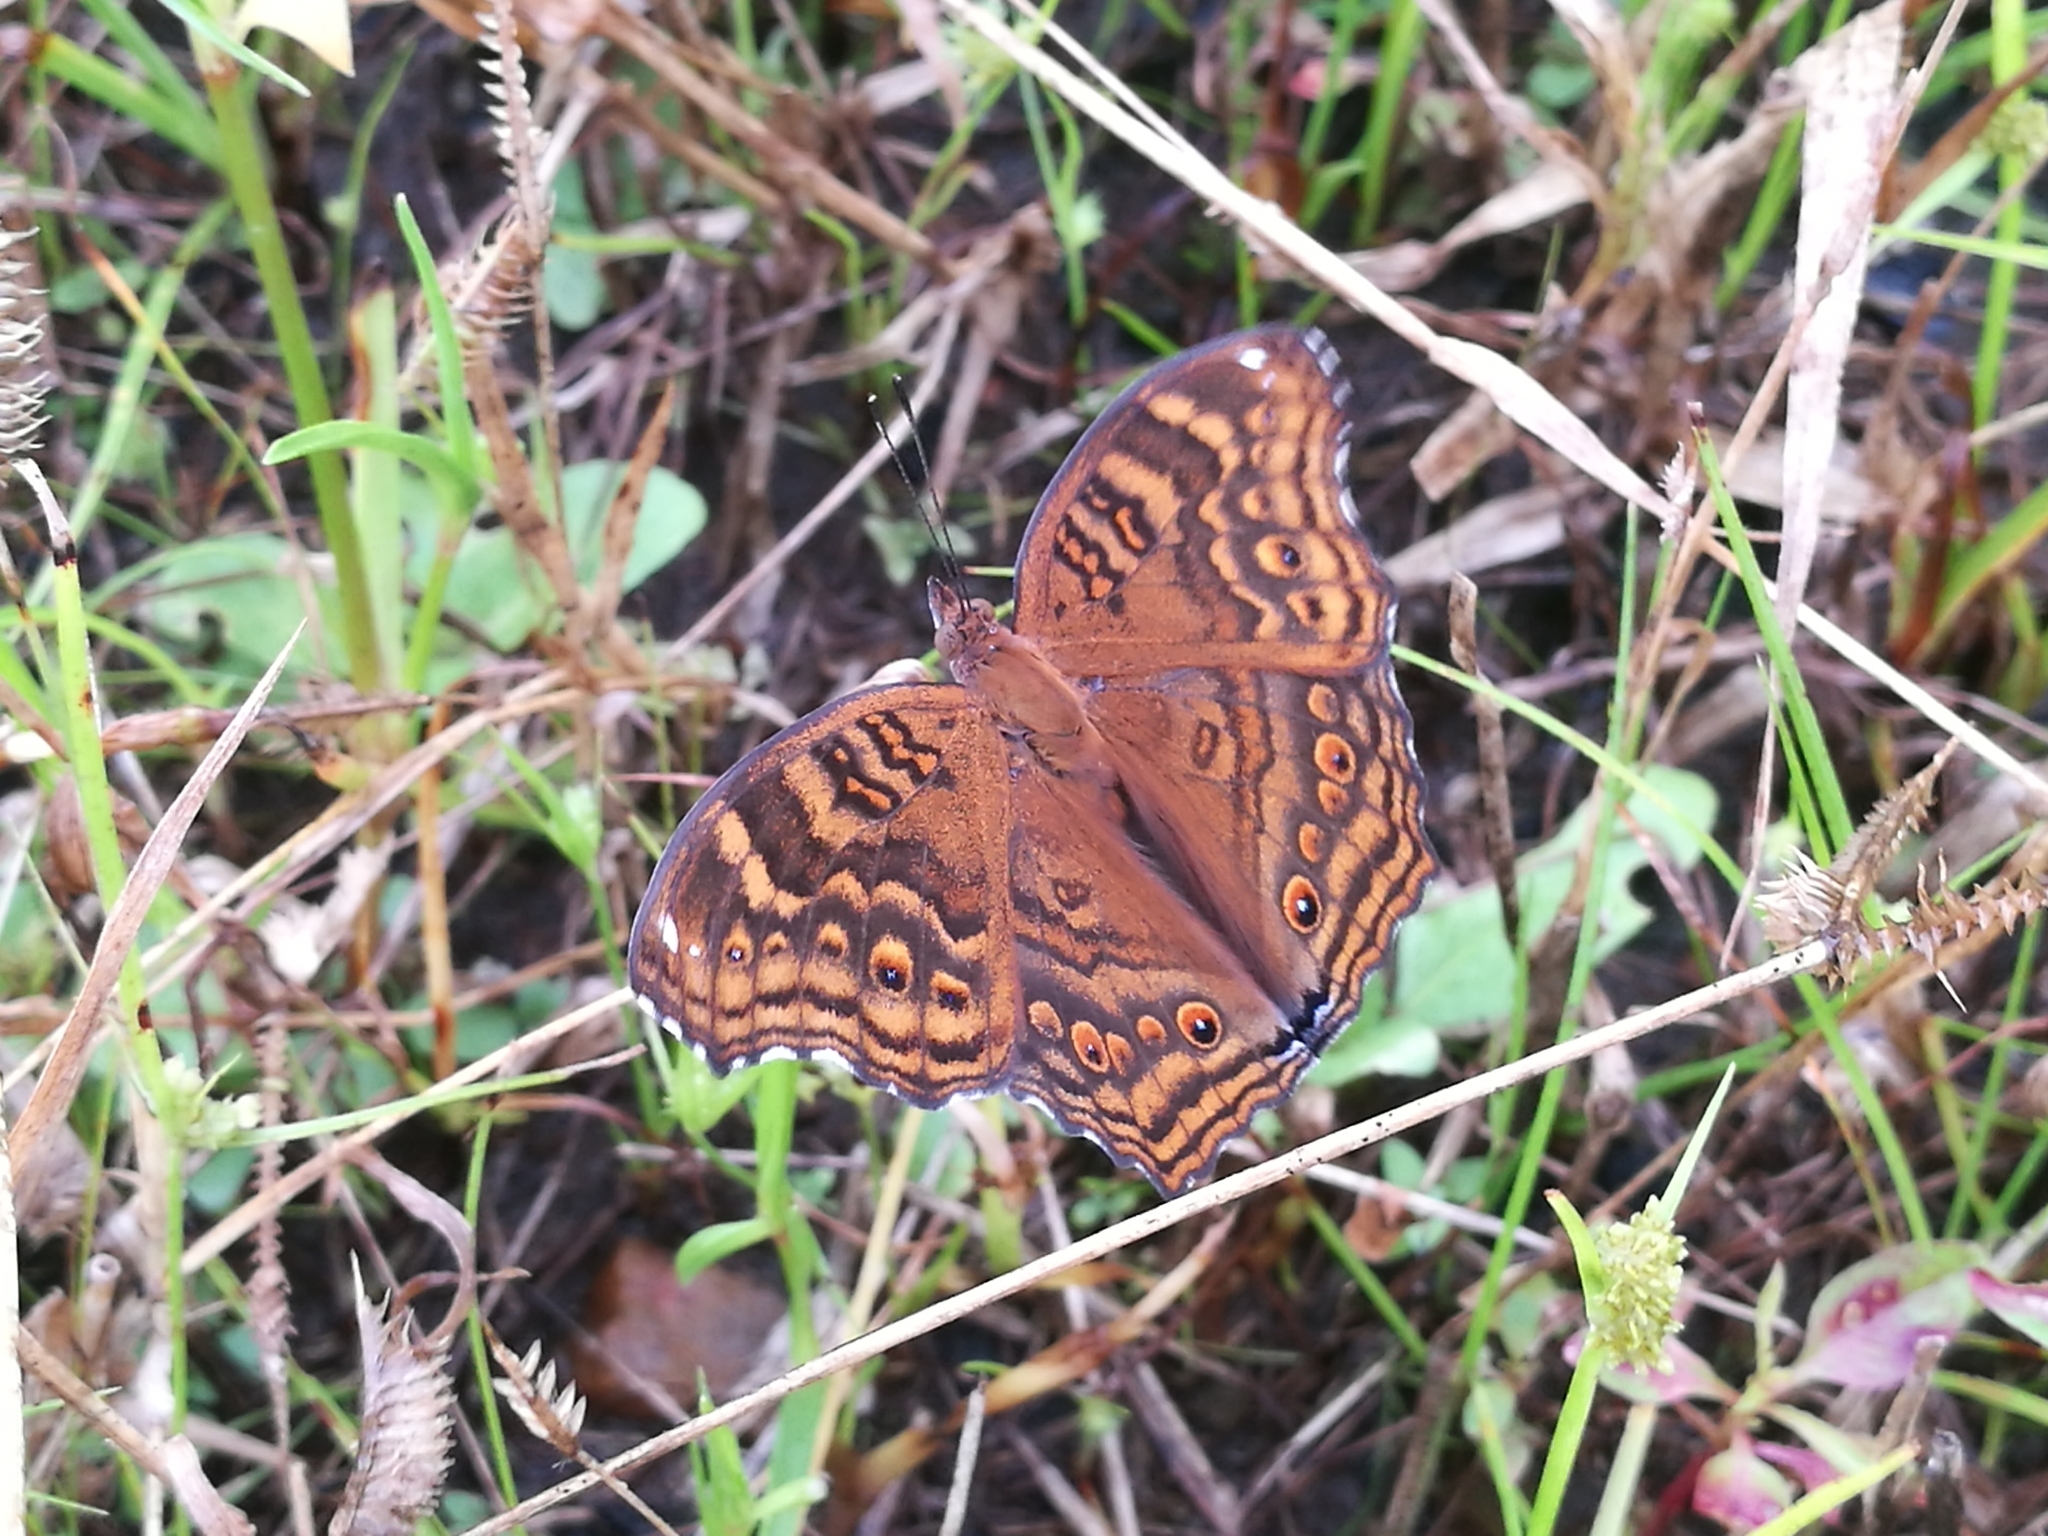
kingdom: Animalia
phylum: Arthropoda
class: Insecta
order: Lepidoptera
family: Nymphalidae
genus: Junonia
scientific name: Junonia chorimene
